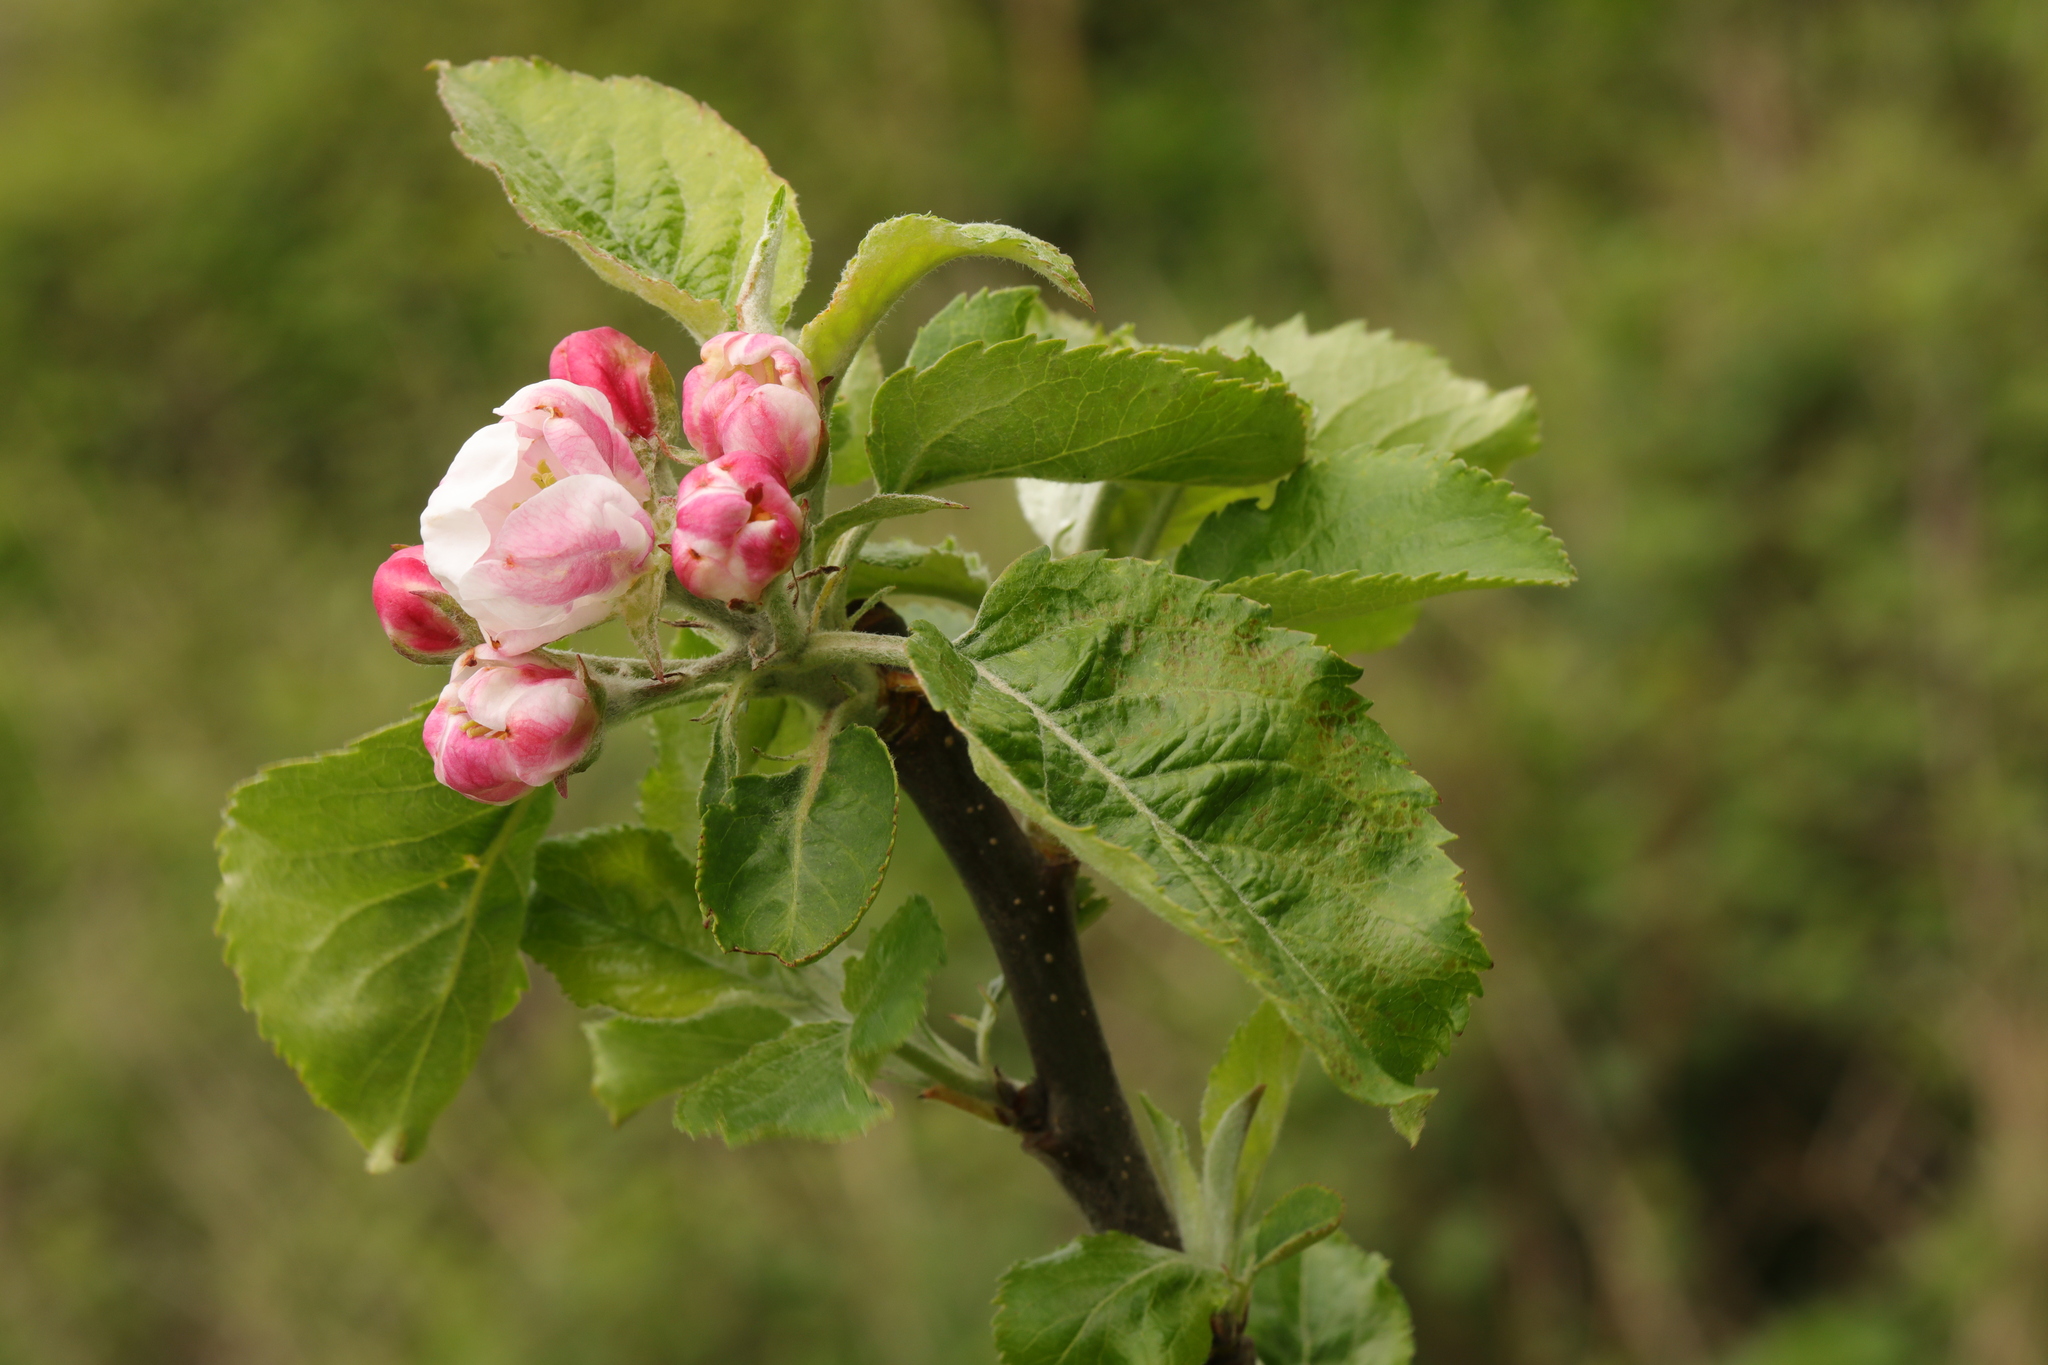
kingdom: Plantae
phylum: Tracheophyta
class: Magnoliopsida
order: Rosales
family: Rosaceae
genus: Malus
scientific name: Malus domestica
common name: Apple
